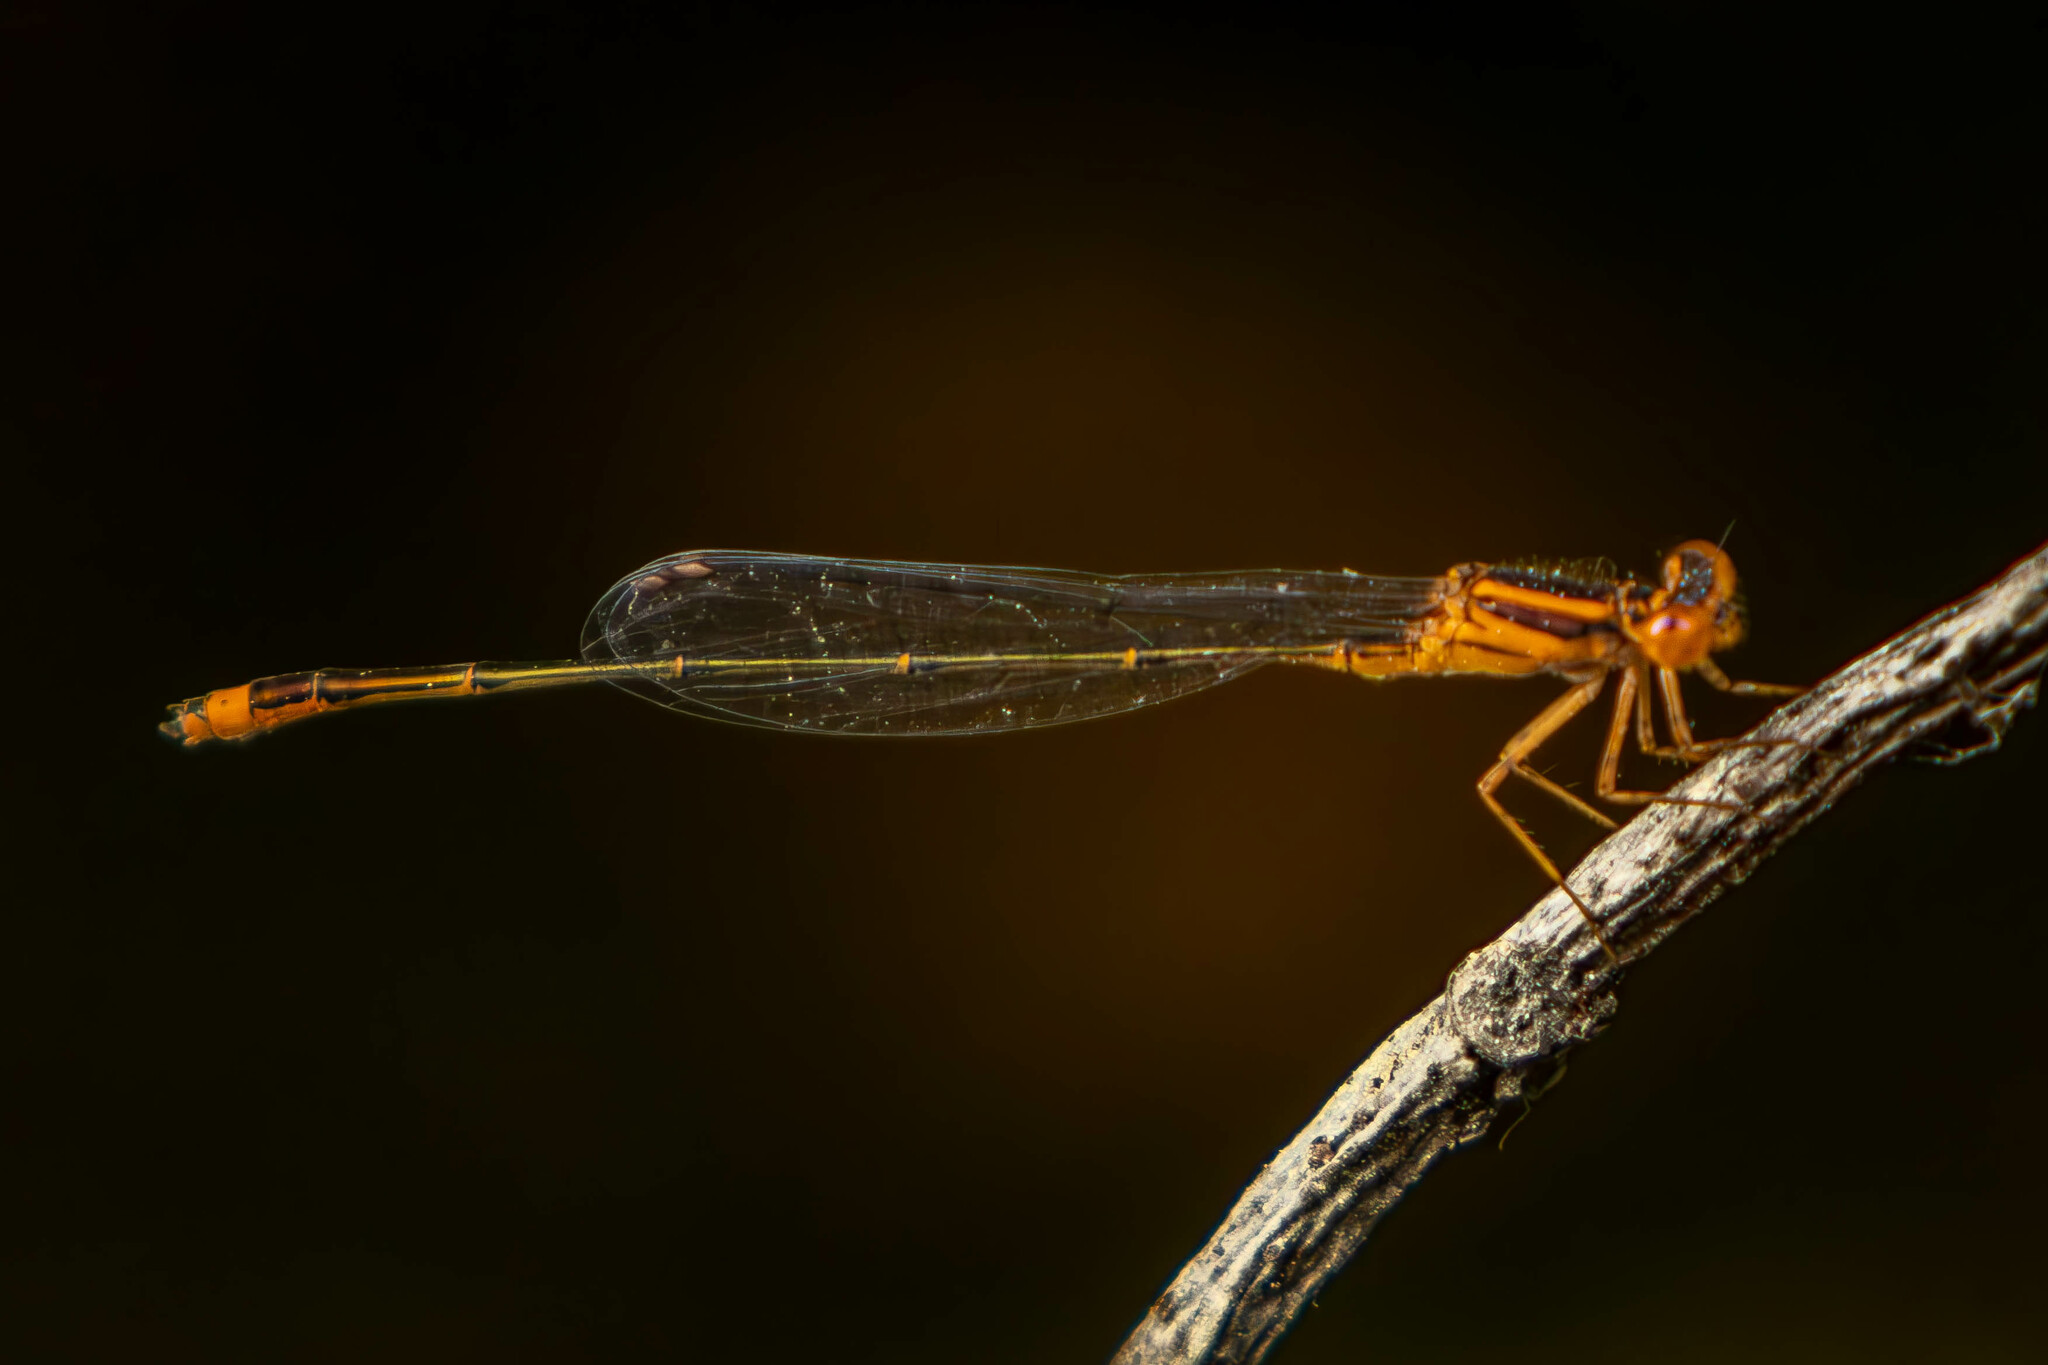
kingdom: Animalia
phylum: Arthropoda
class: Insecta
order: Odonata
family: Coenagrionidae
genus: Enallagma
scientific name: Enallagma pollutum
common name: Florida bluet
